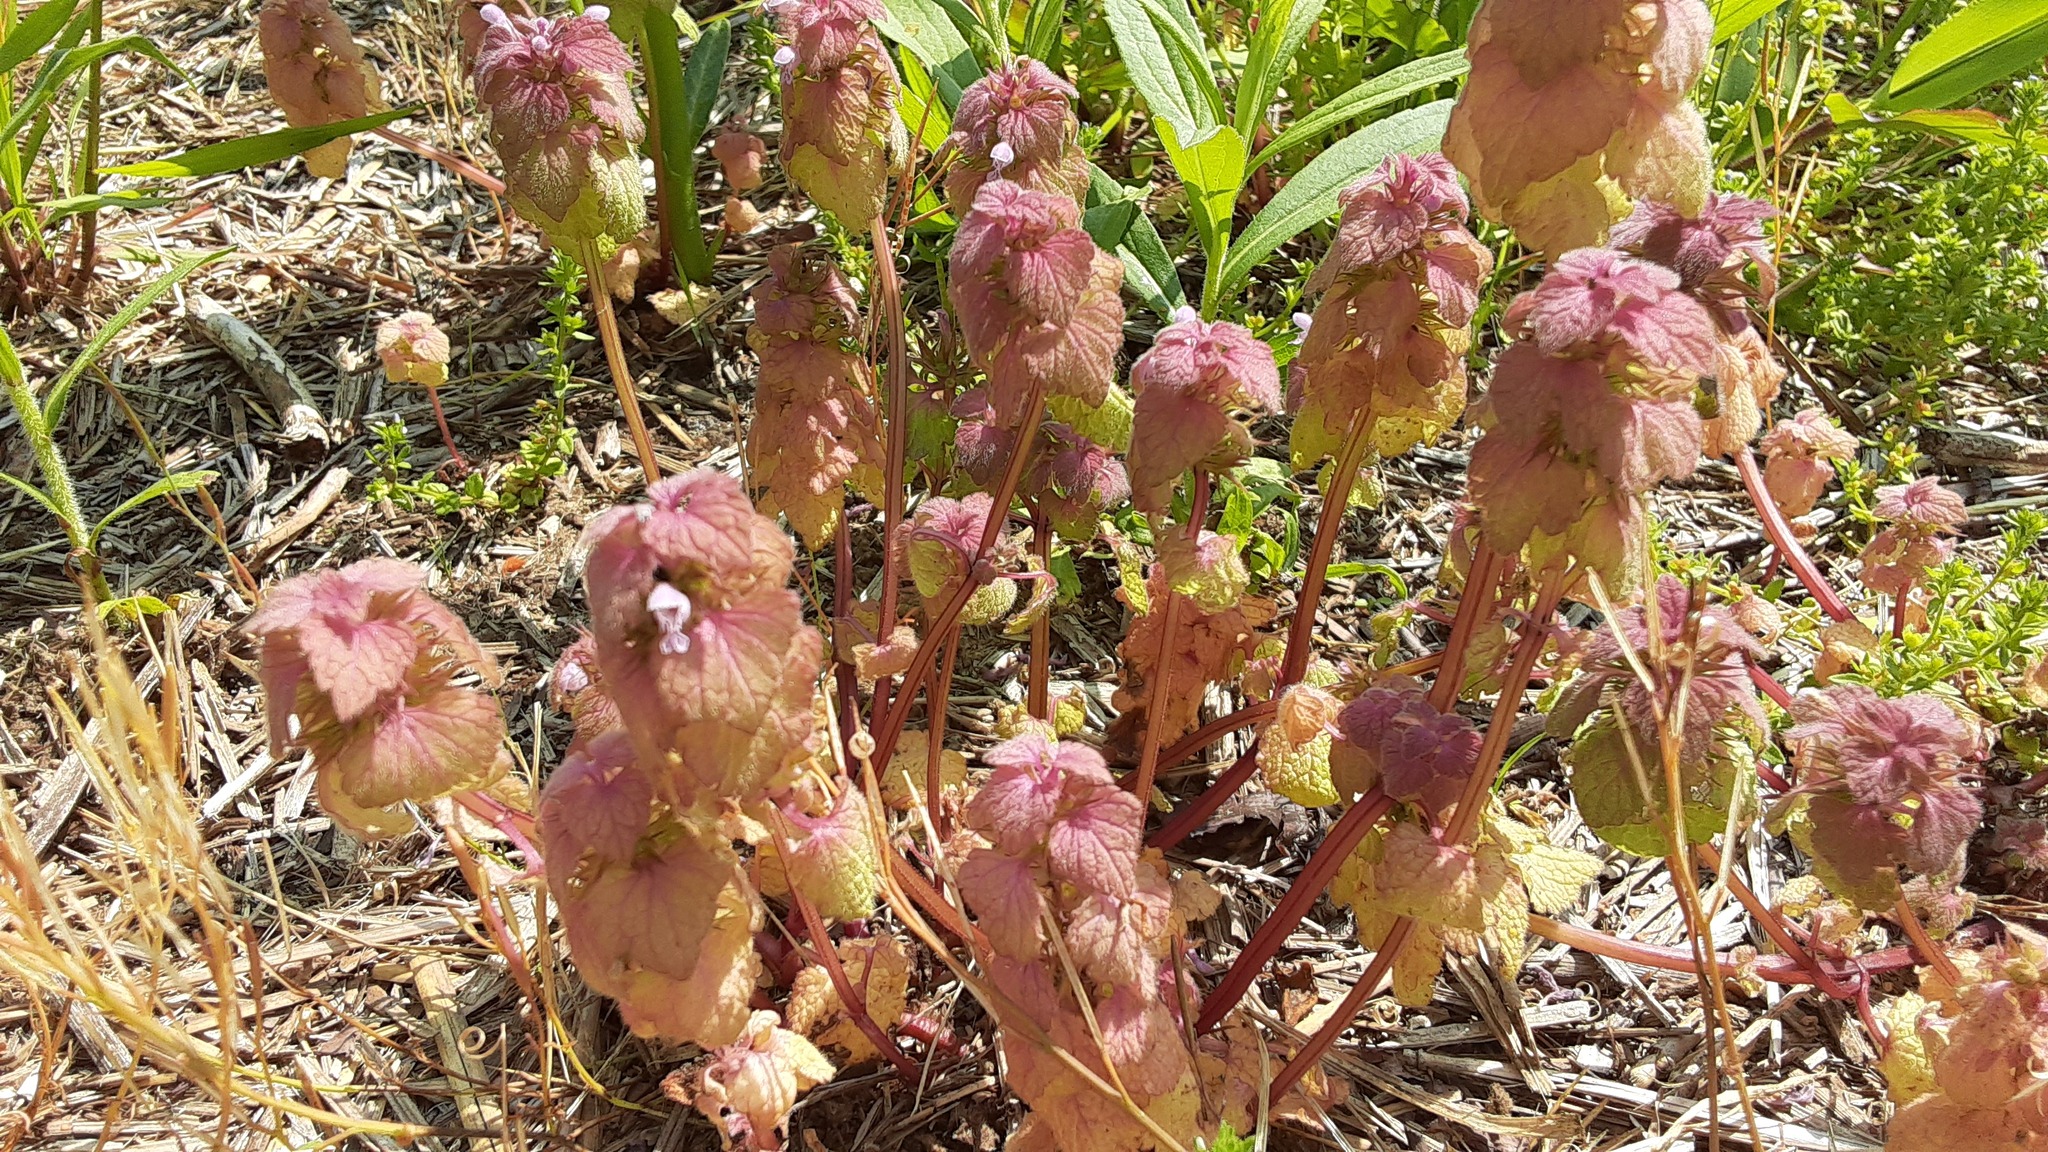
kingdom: Plantae
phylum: Tracheophyta
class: Magnoliopsida
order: Lamiales
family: Lamiaceae
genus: Lamium
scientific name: Lamium purpureum
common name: Red dead-nettle
